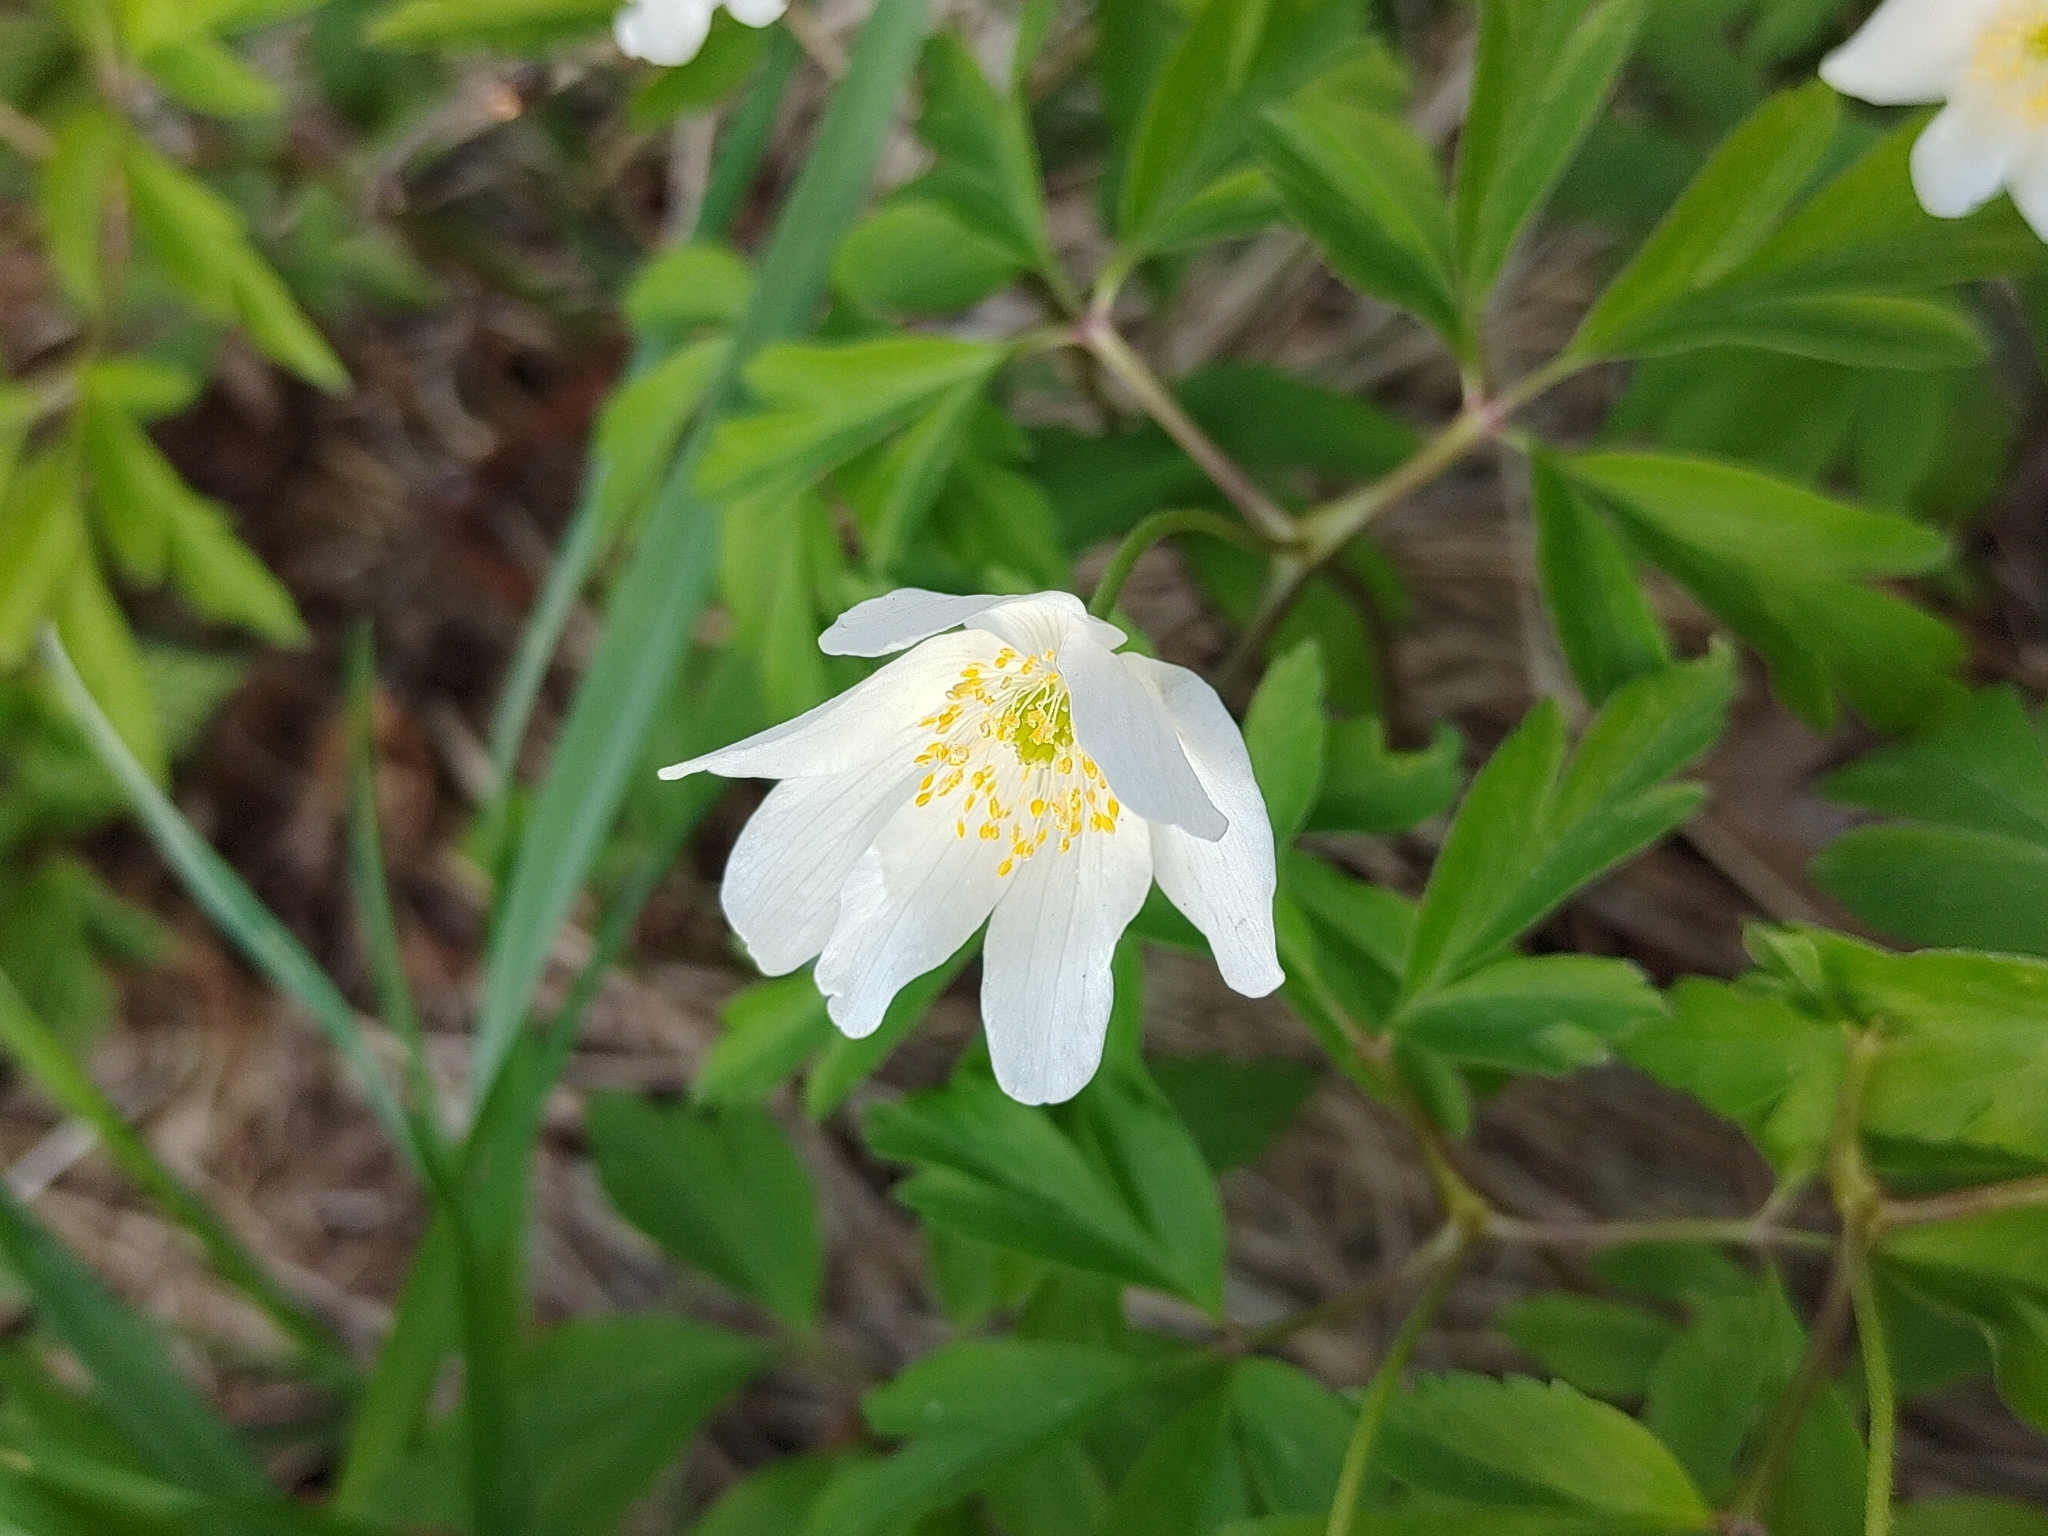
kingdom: Plantae
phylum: Tracheophyta
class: Magnoliopsida
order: Ranunculales
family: Ranunculaceae
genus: Anemone
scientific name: Anemone nemorosa
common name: Wood anemone
